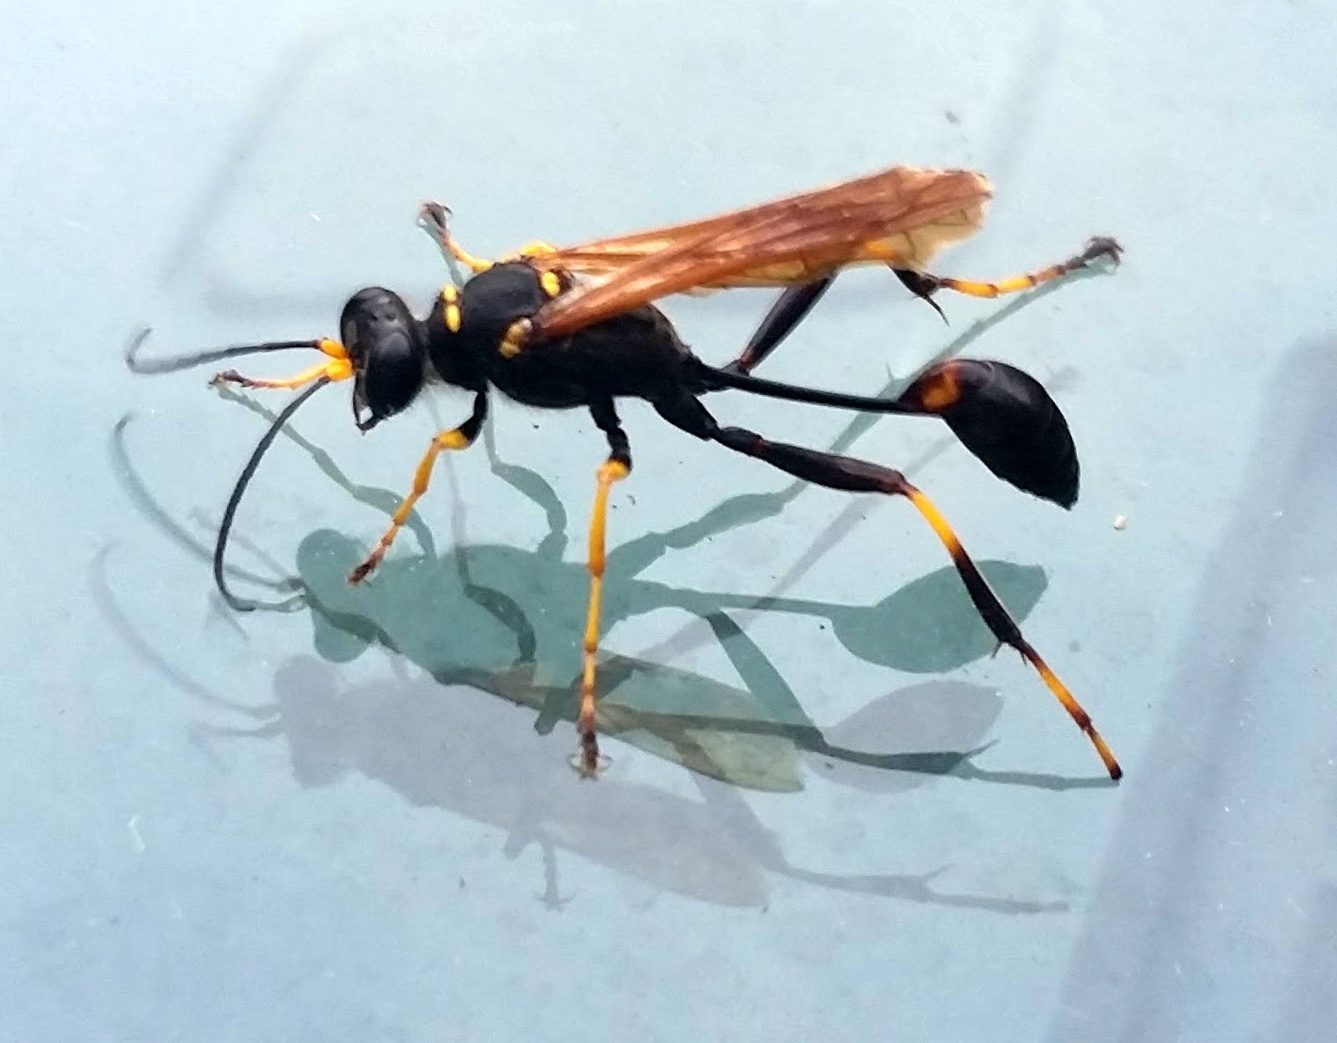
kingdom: Animalia
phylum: Arthropoda
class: Insecta
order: Hymenoptera
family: Sphecidae
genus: Sceliphron
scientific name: Sceliphron caementarium
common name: Mud dauber
